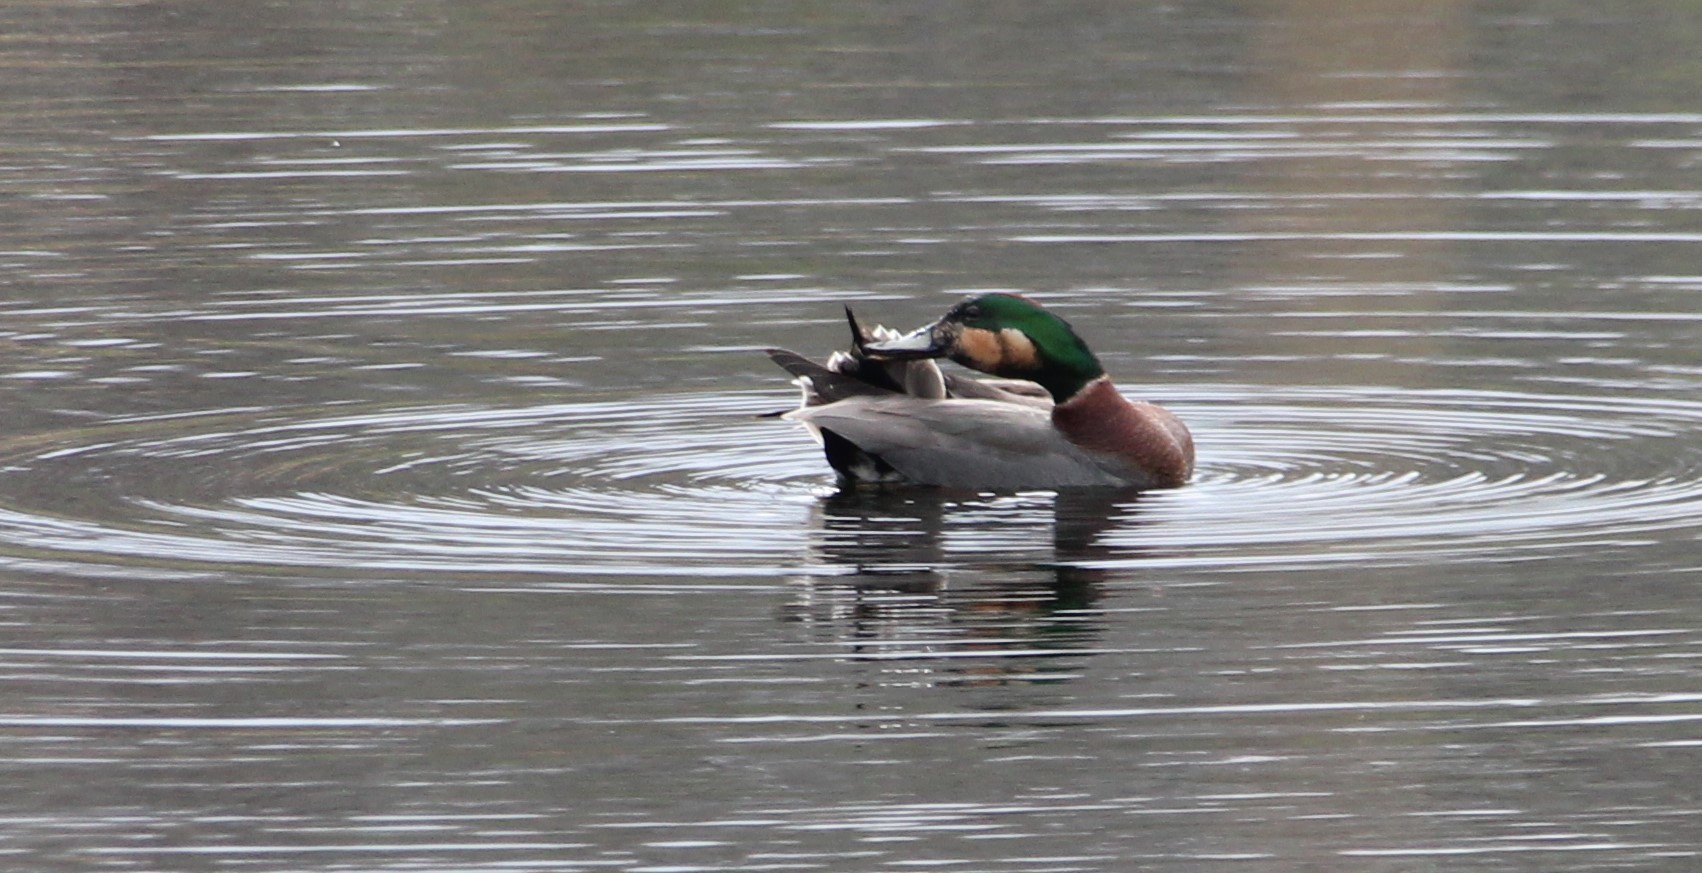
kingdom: Animalia
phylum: Chordata
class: Aves
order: Anseriformes
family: Anatidae
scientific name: Anatidae
